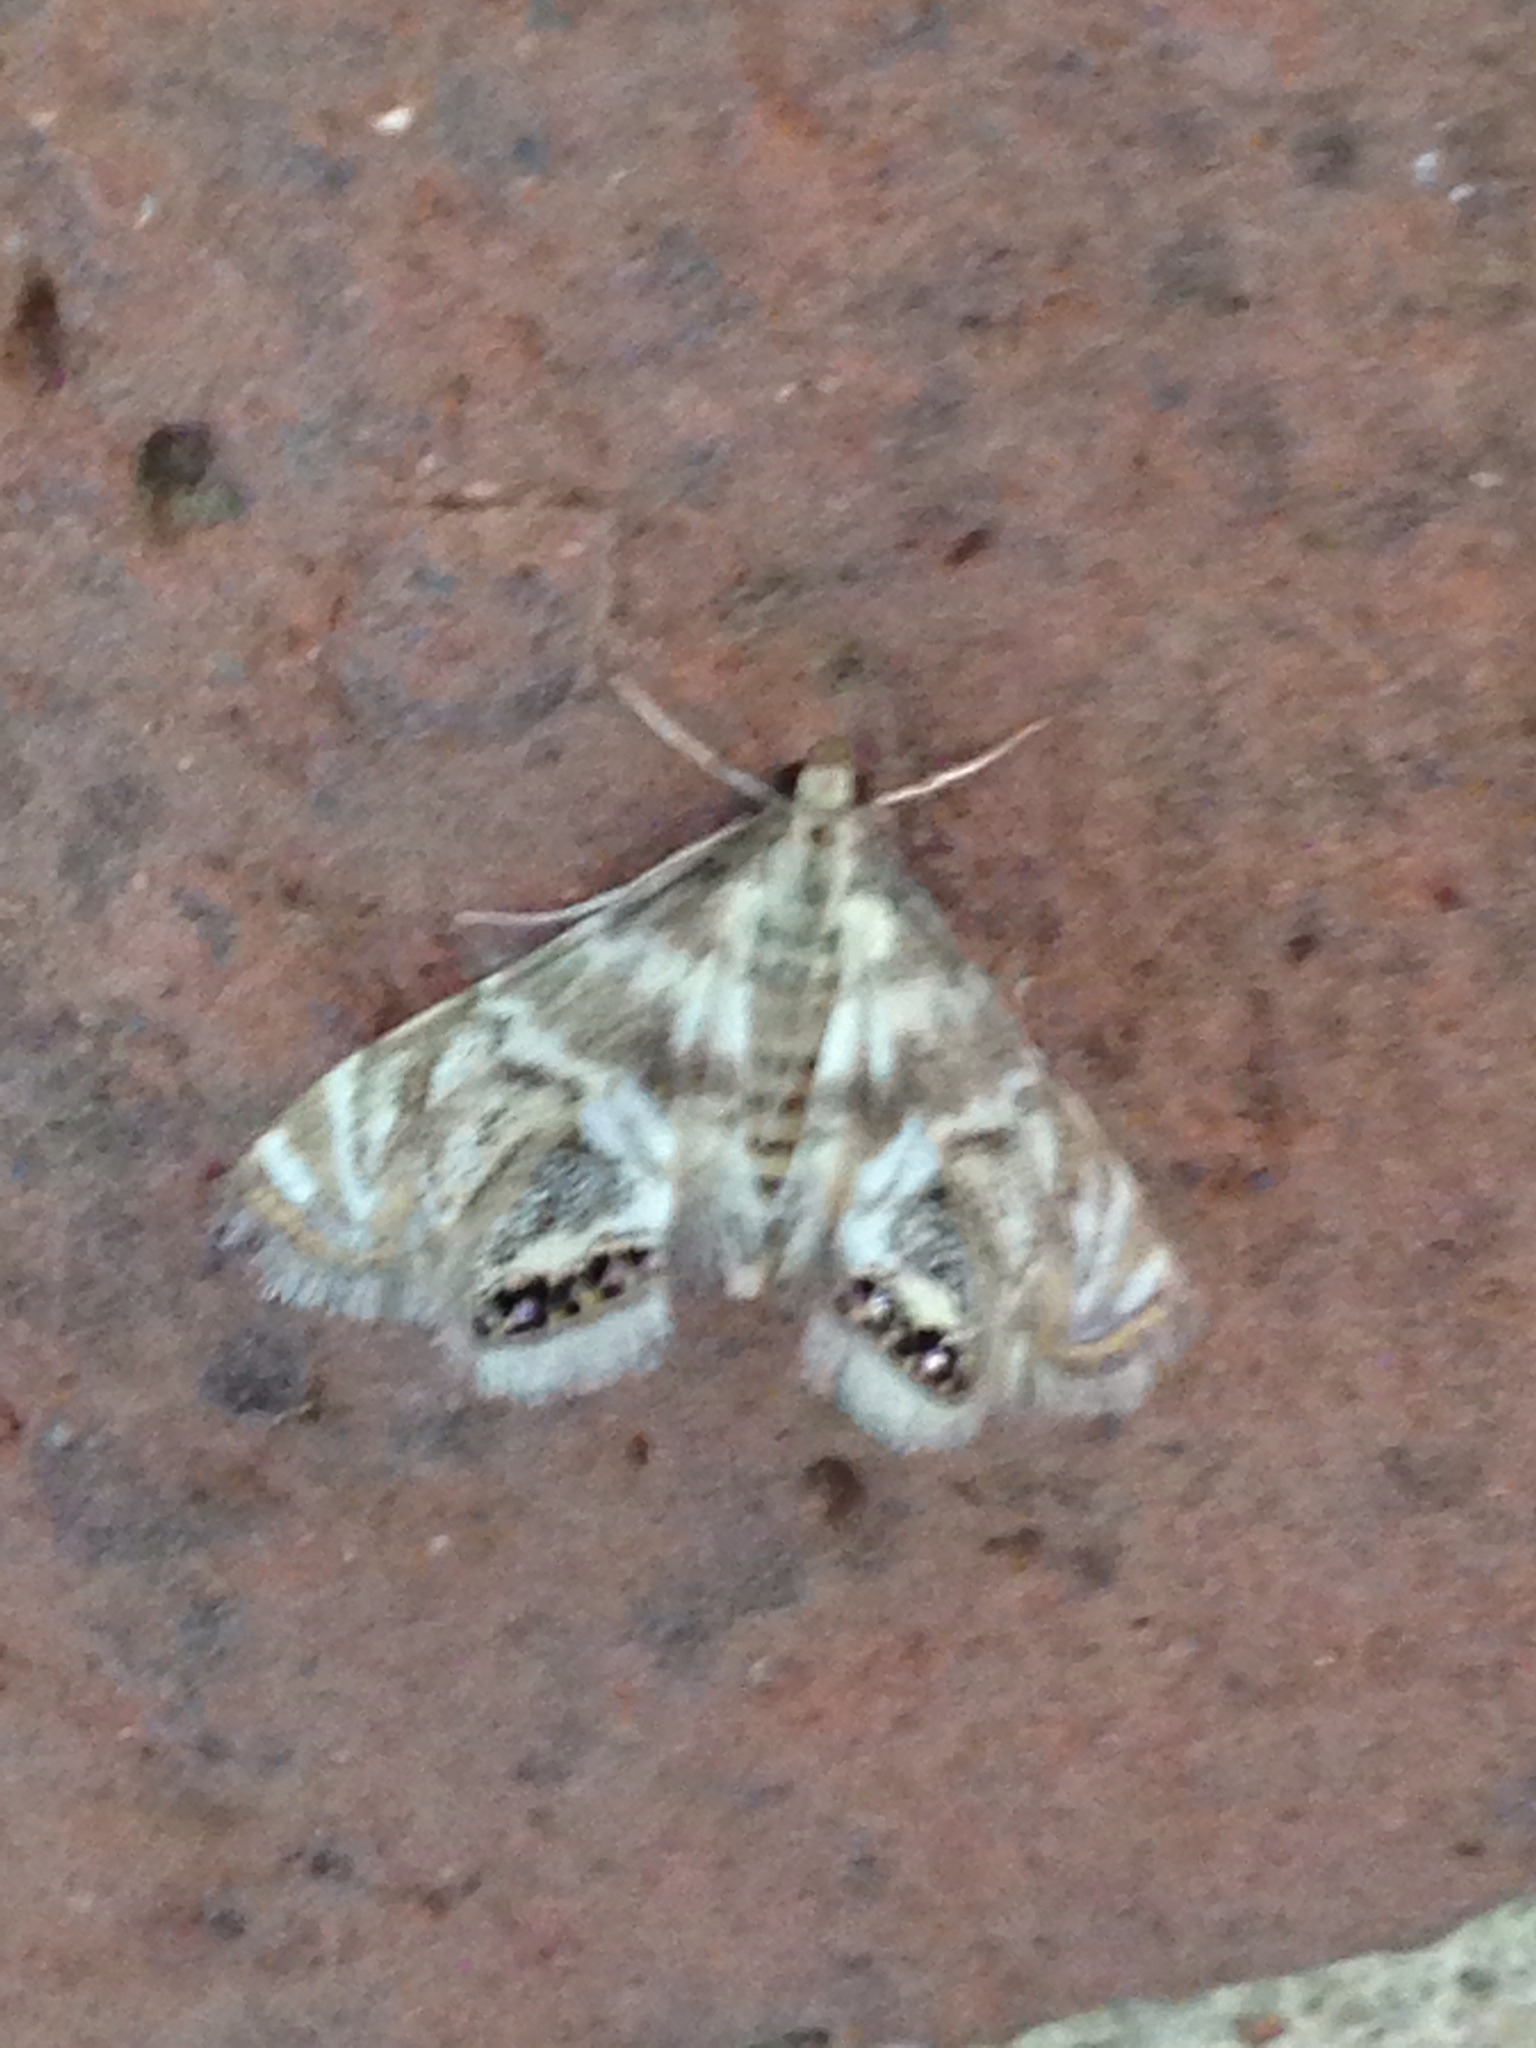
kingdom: Animalia
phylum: Arthropoda
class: Insecta
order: Lepidoptera
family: Crambidae
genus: Petrophila
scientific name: Petrophila canadensis
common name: Canadian petrophila
